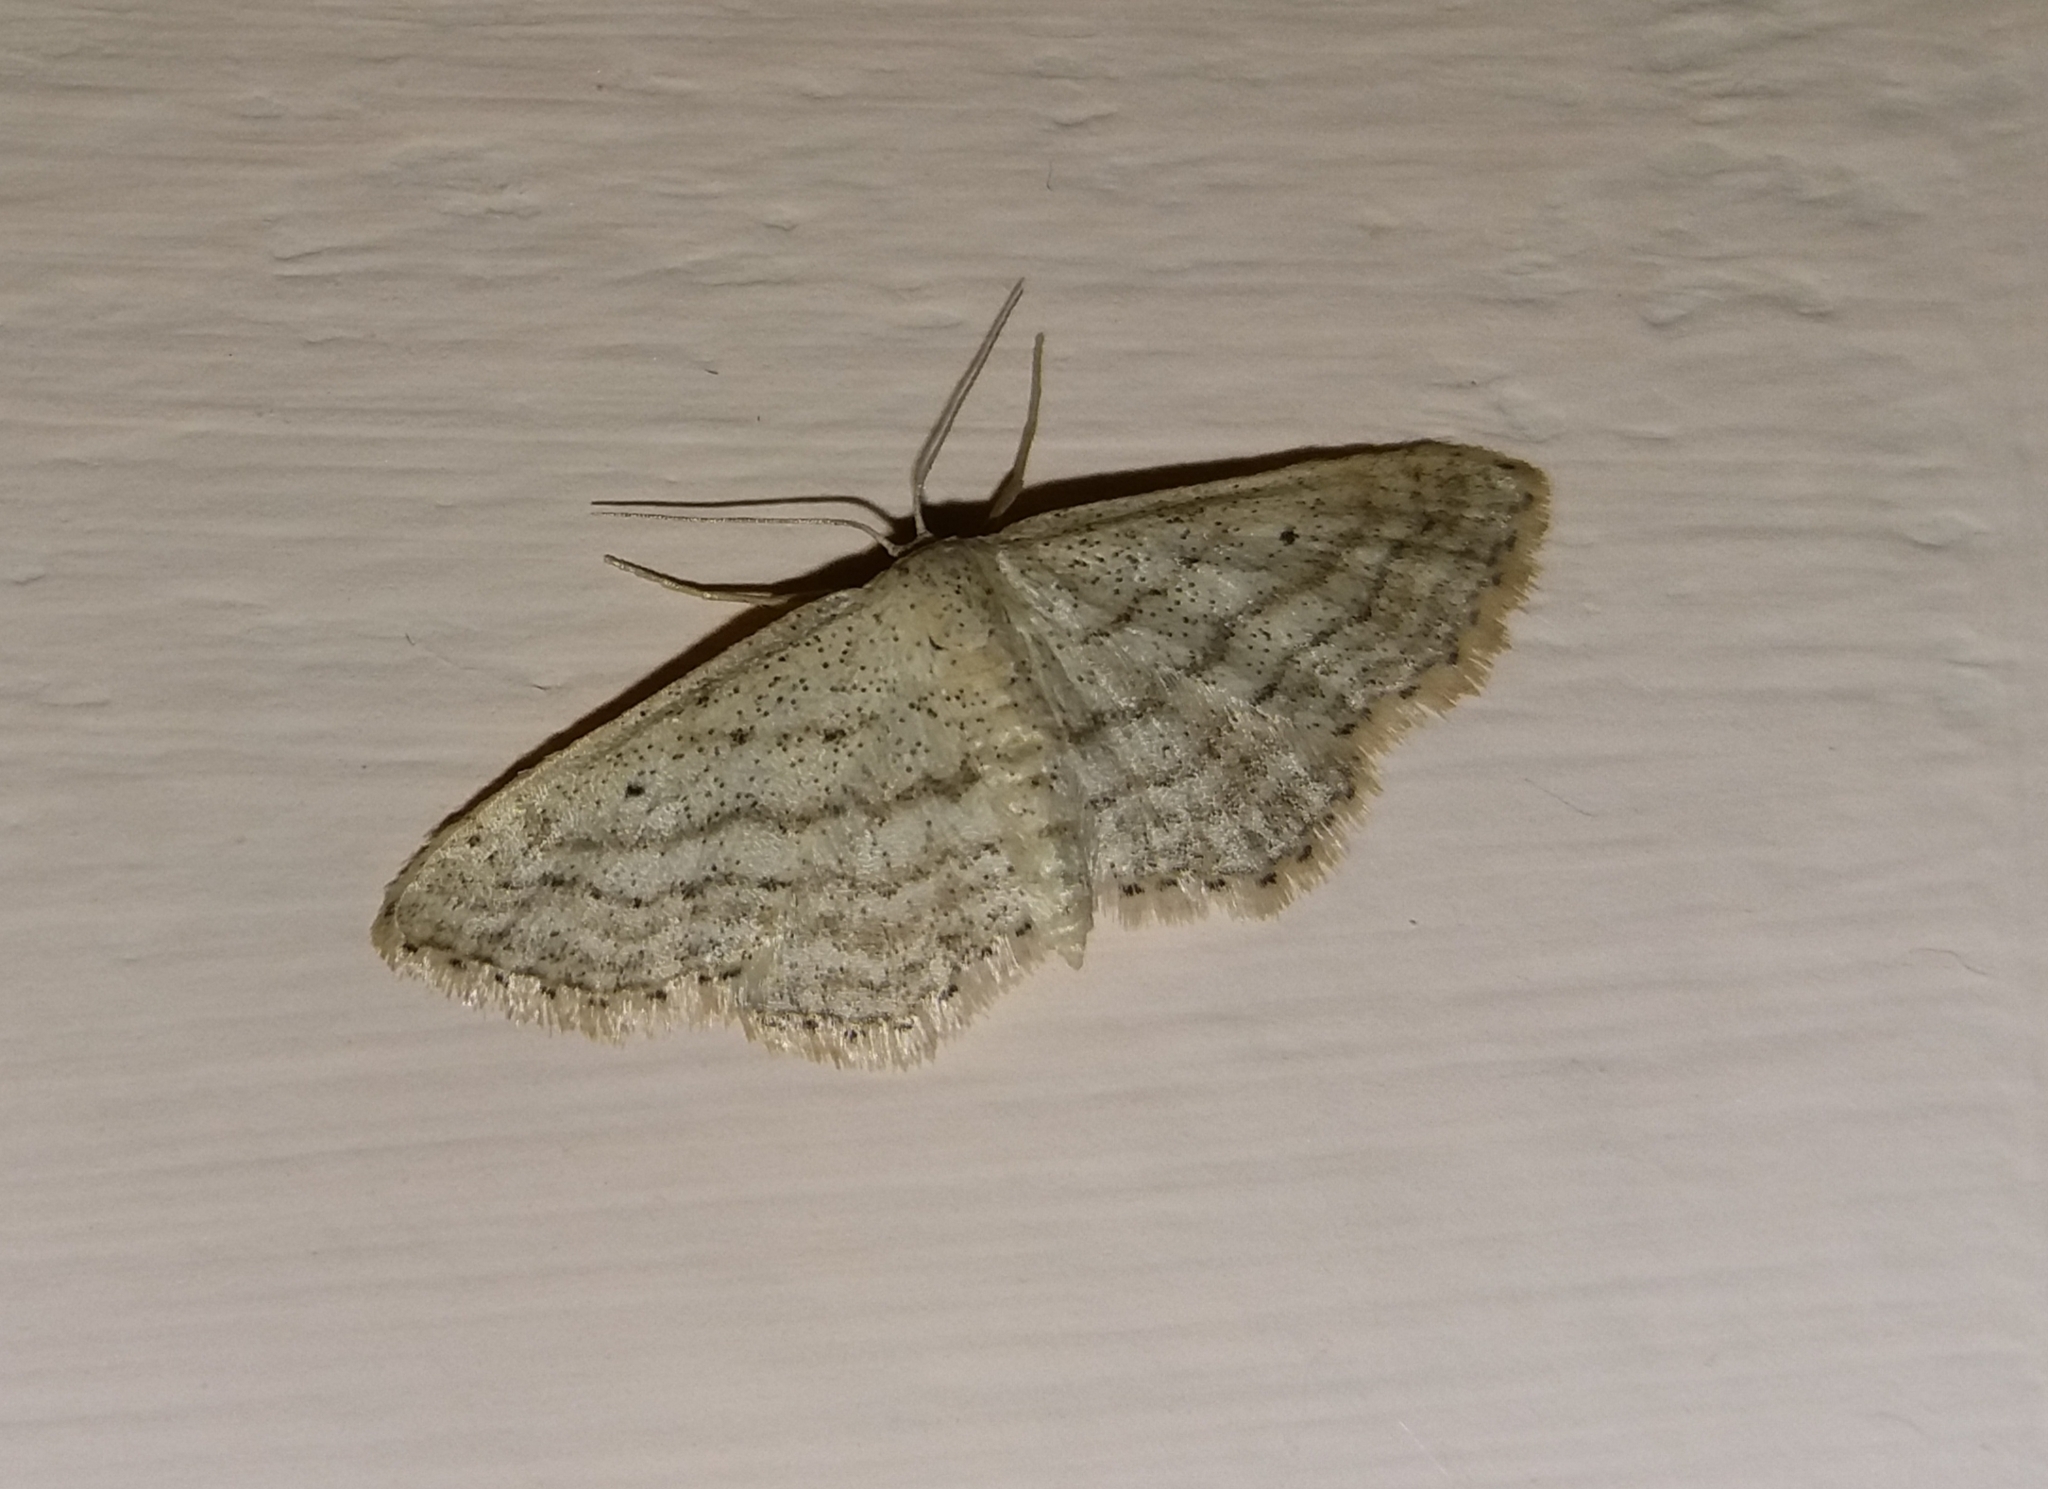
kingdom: Animalia
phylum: Arthropoda
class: Insecta
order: Lepidoptera
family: Geometridae
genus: Idaea
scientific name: Idaea elongaria
